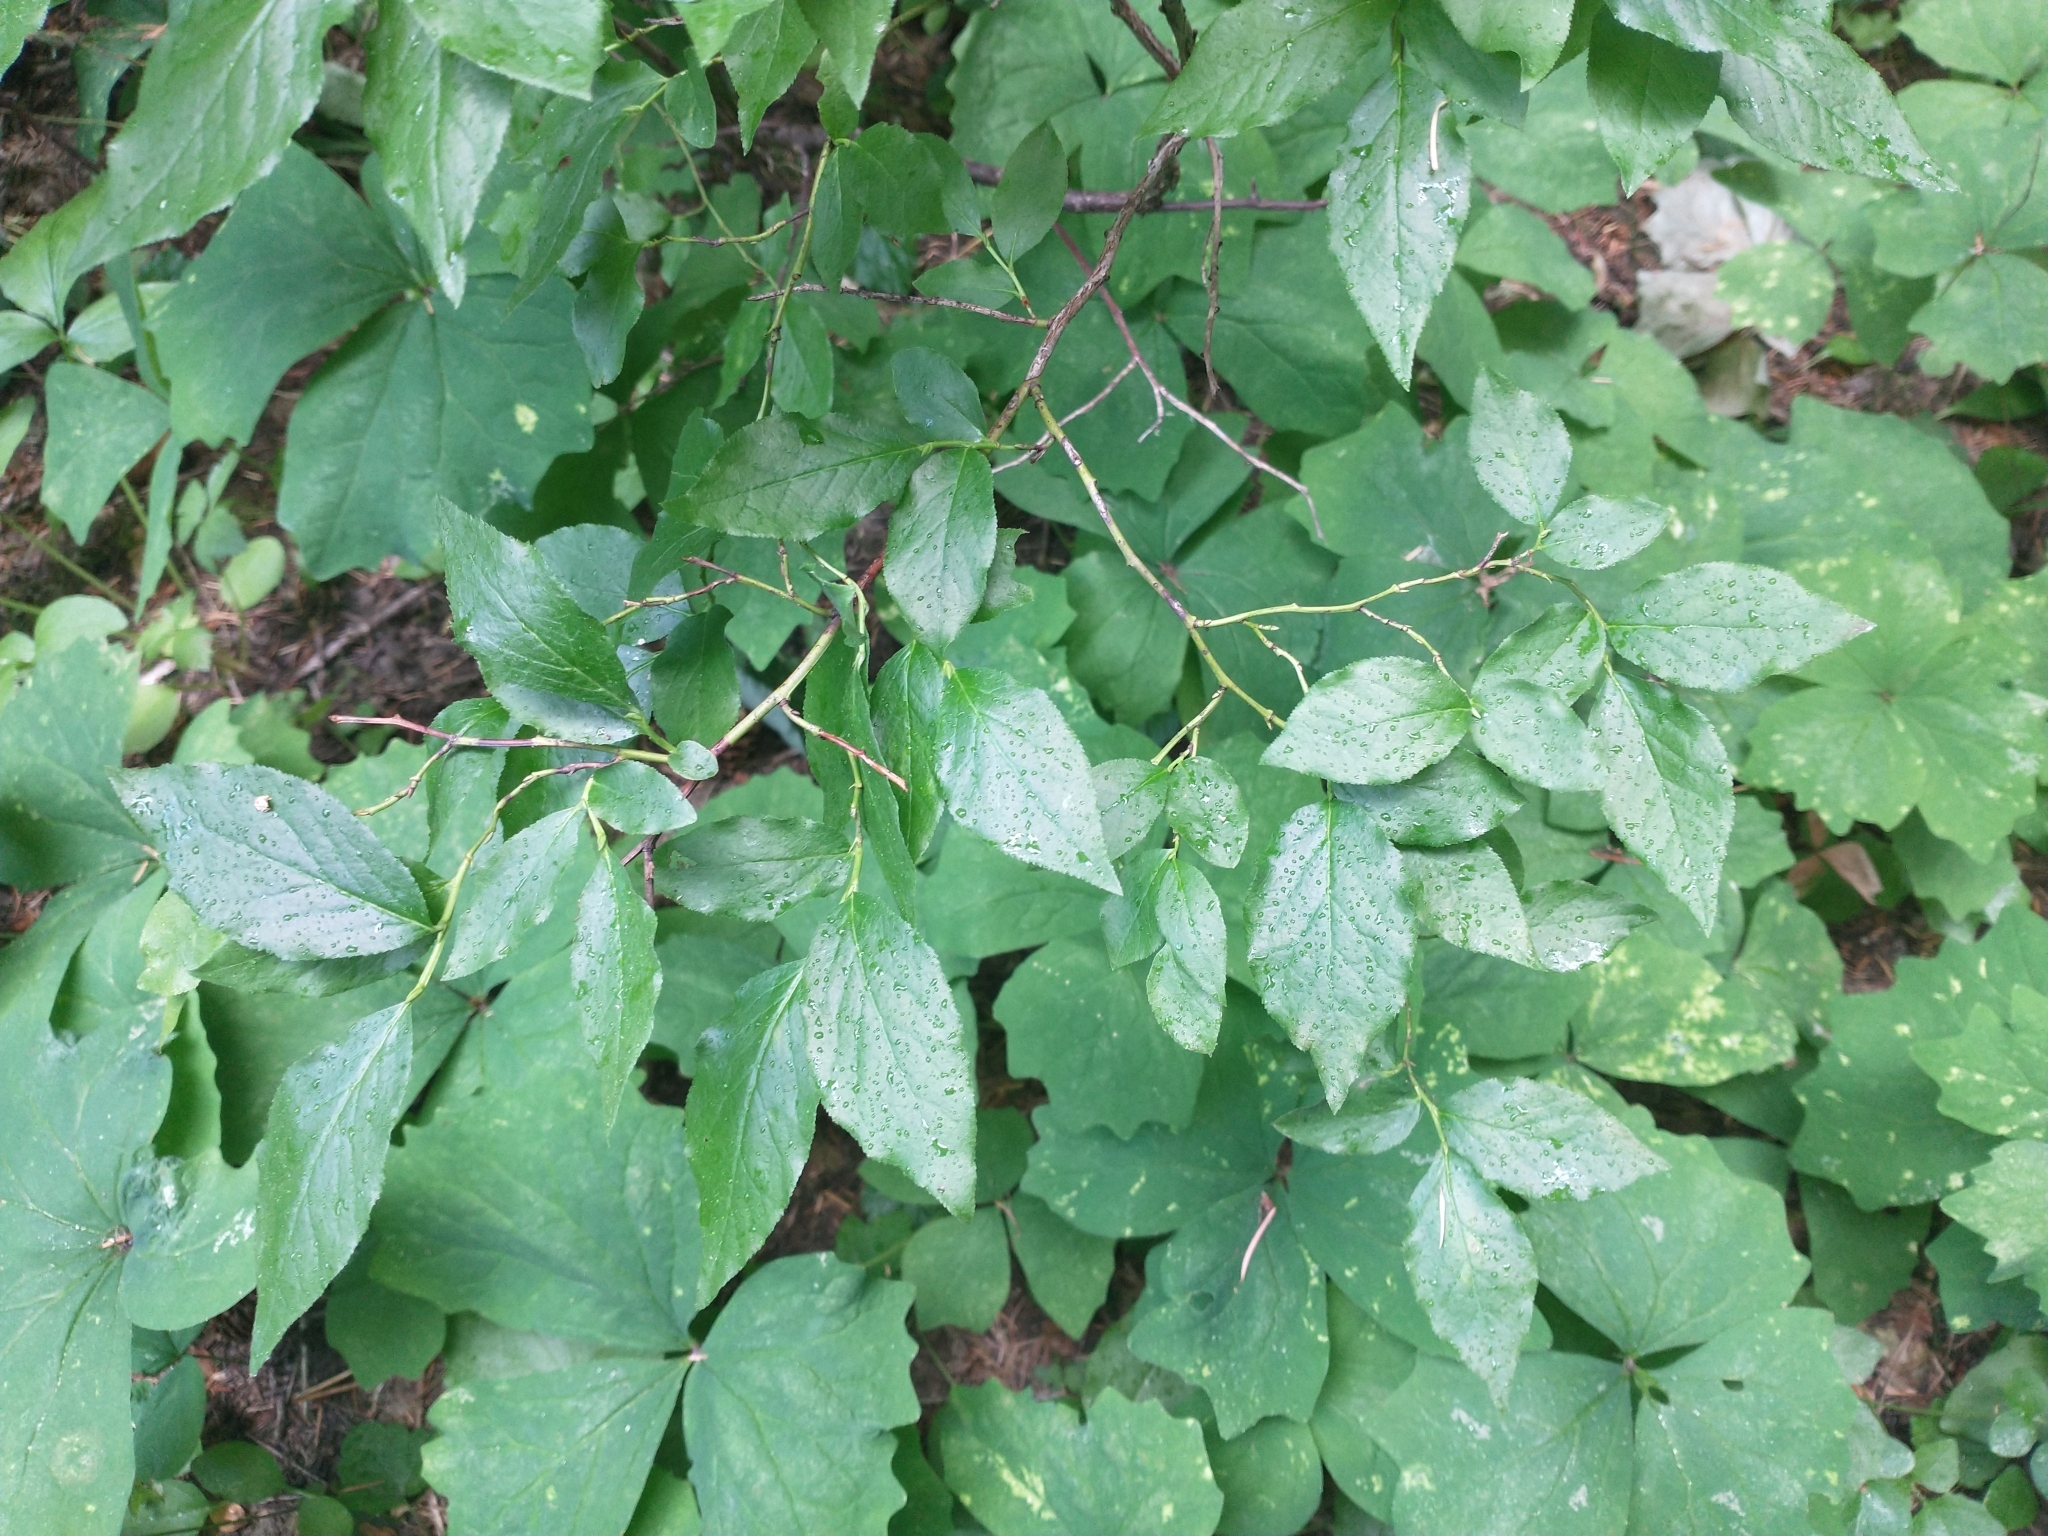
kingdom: Plantae
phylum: Tracheophyta
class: Magnoliopsida
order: Ericales
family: Ericaceae
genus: Vaccinium
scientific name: Vaccinium membranaceum
